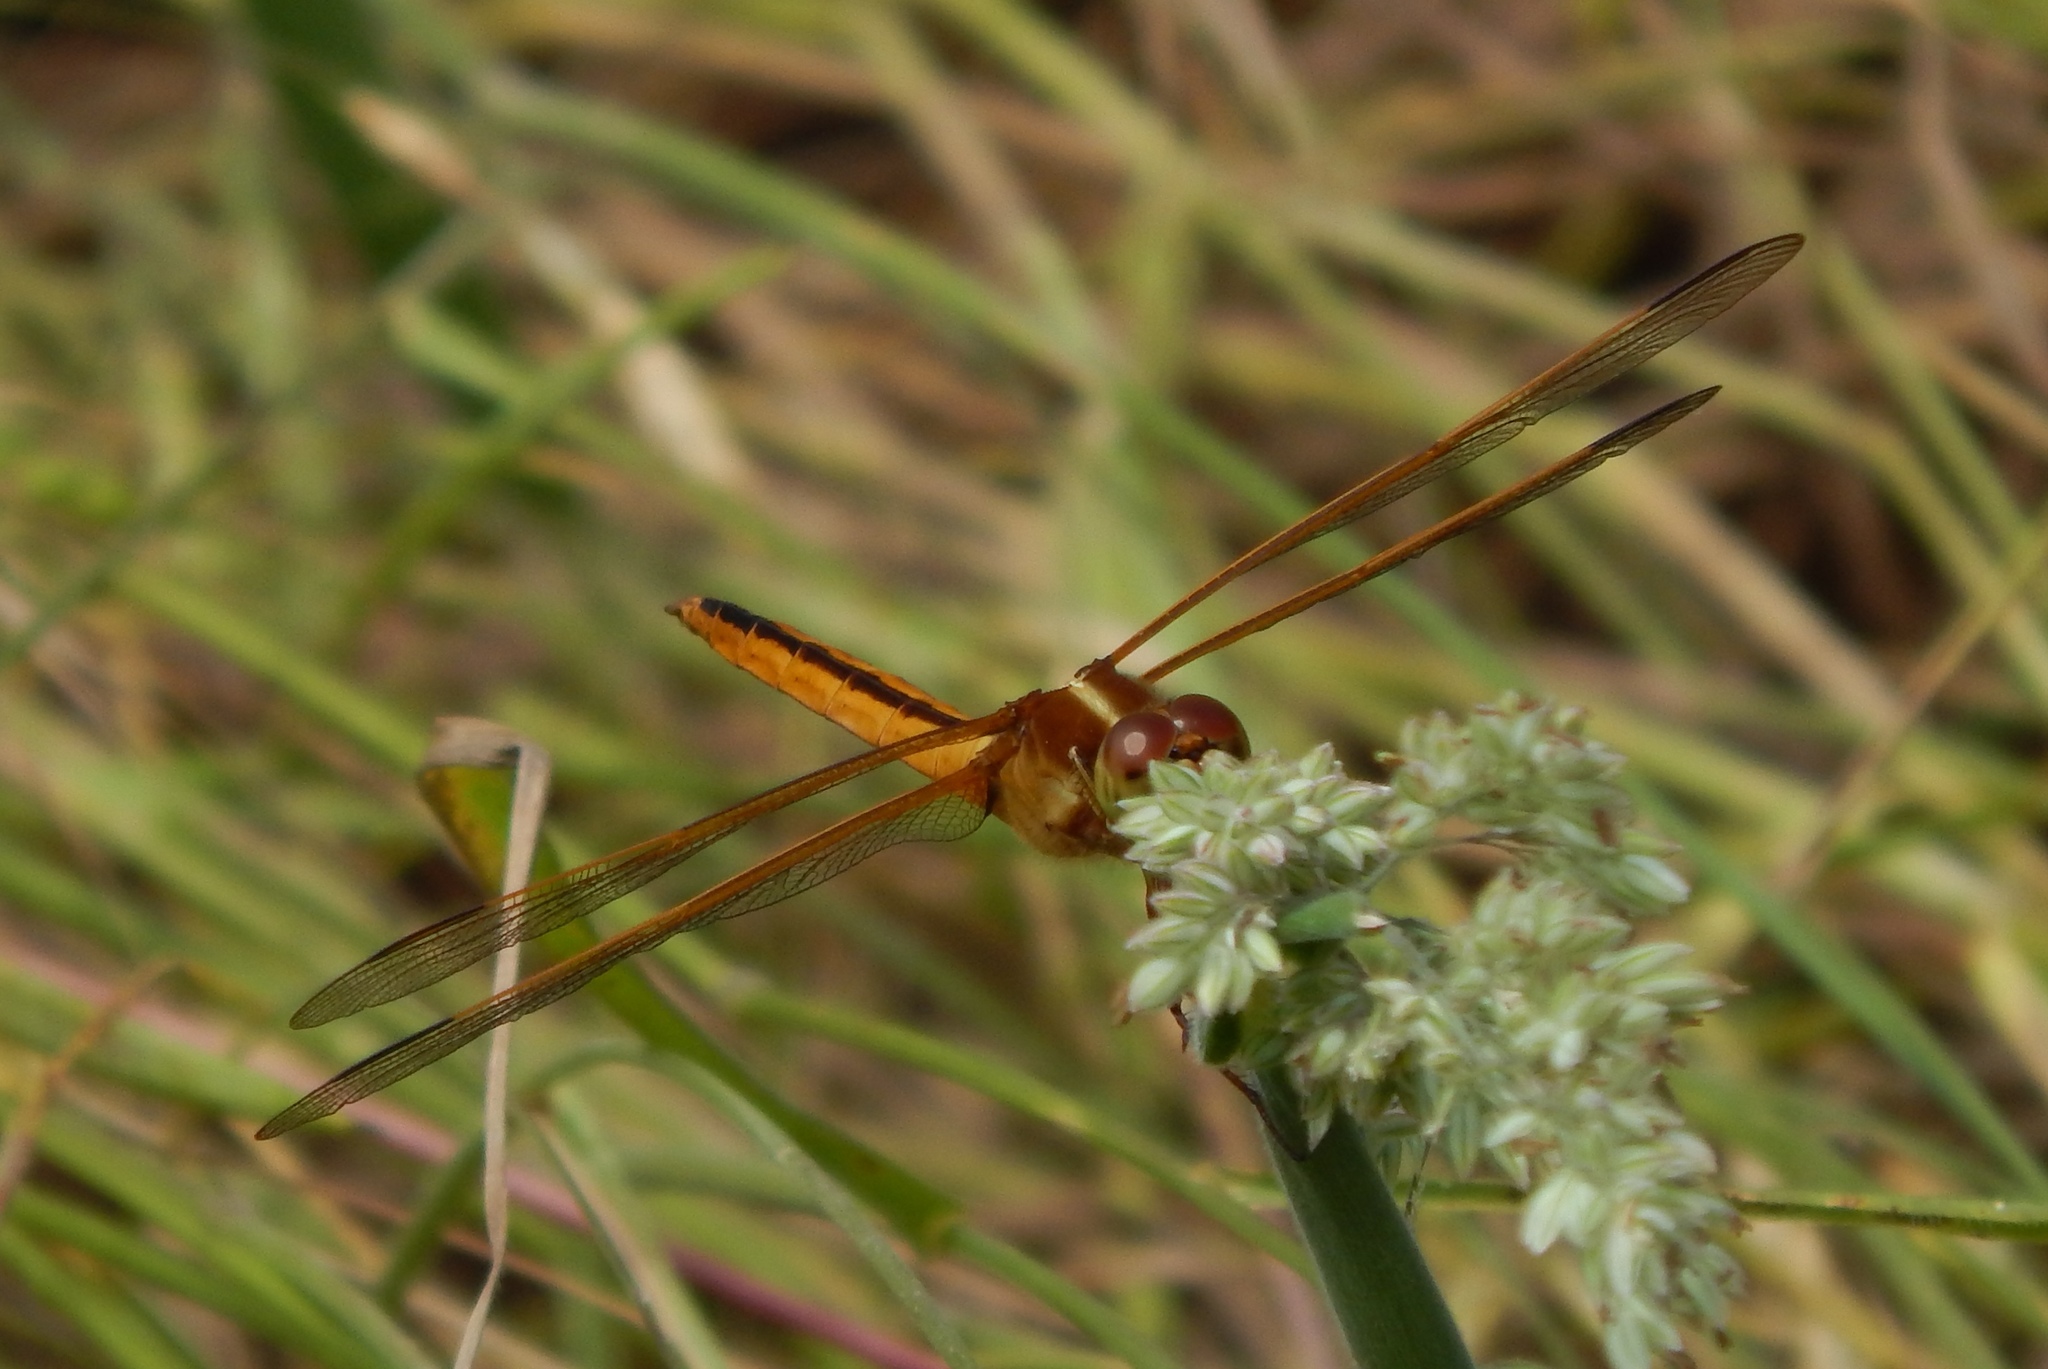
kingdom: Animalia
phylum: Arthropoda
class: Insecta
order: Odonata
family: Libellulidae
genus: Libellula
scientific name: Libellula needhami
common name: Needham's skimmer
